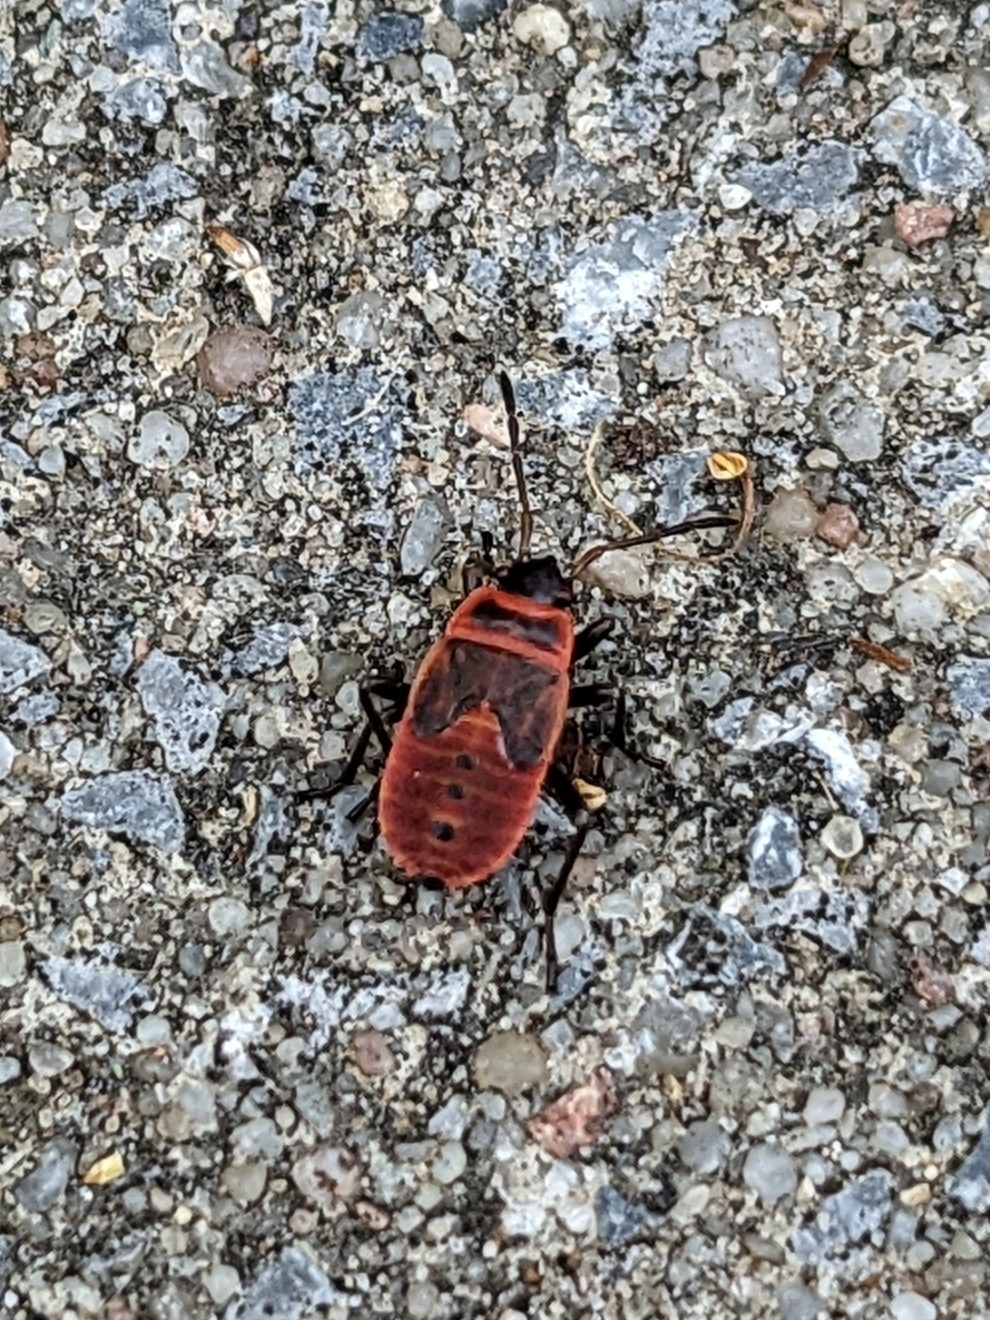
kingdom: Animalia
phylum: Arthropoda
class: Insecta
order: Hemiptera
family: Pyrrhocoridae
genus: Pyrrhocoris
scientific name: Pyrrhocoris apterus
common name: Firebug
